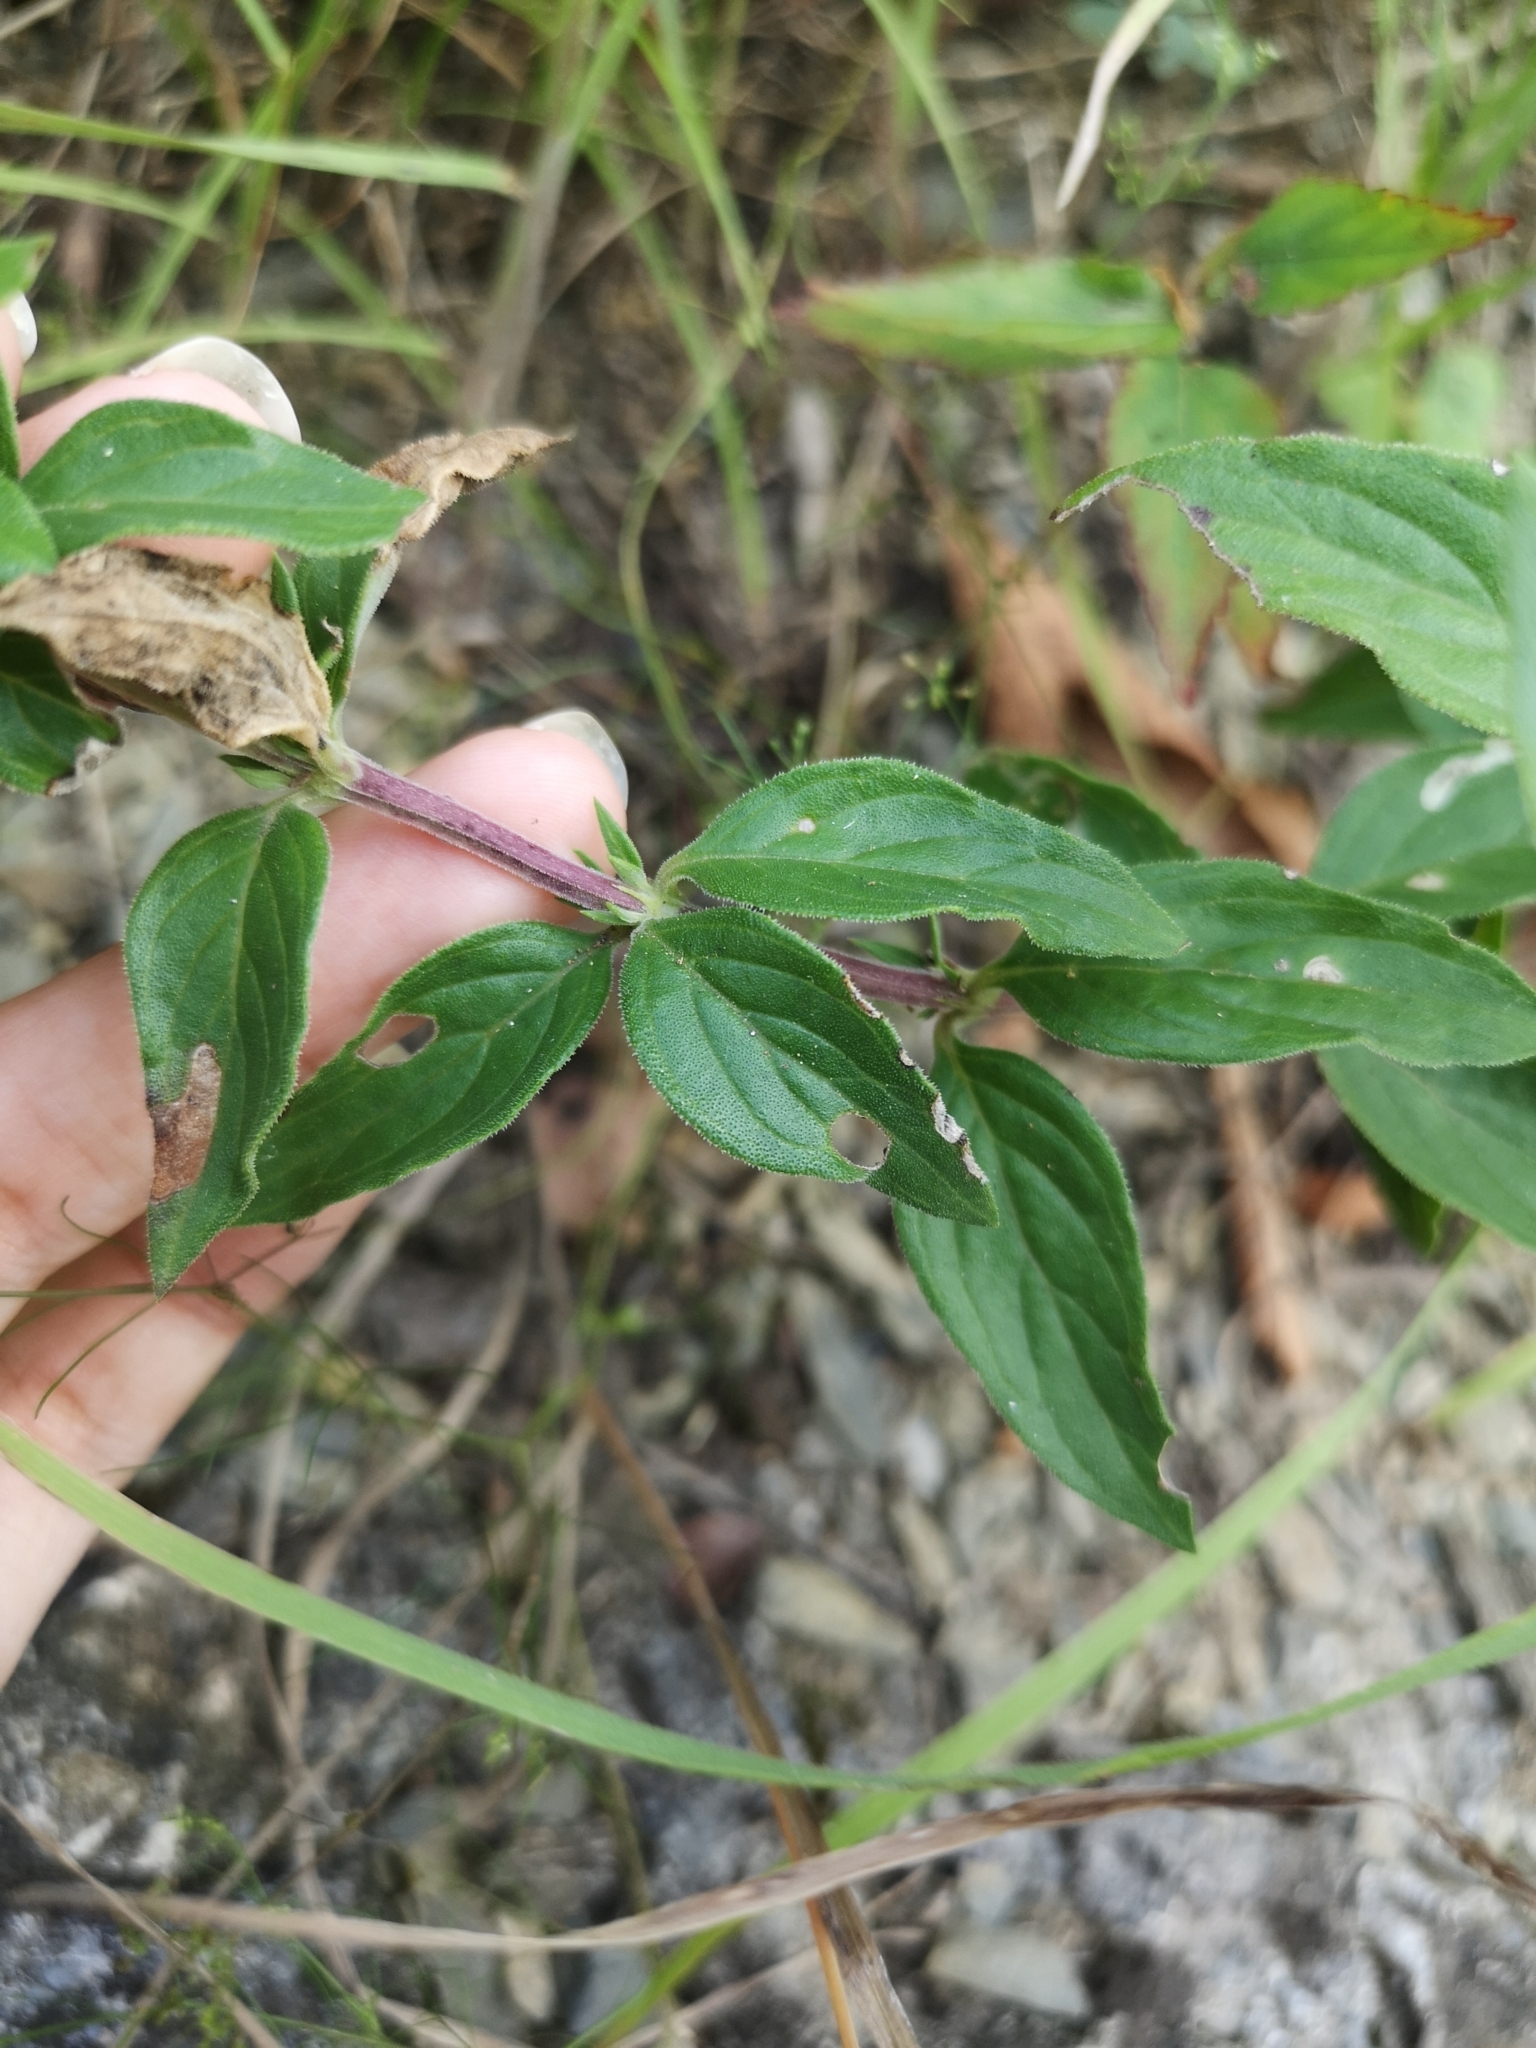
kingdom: Plantae
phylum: Tracheophyta
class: Magnoliopsida
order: Gentianales
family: Rubiaceae
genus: Bouvardia
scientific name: Bouvardia ternifolia
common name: Scarlet bouvardia
